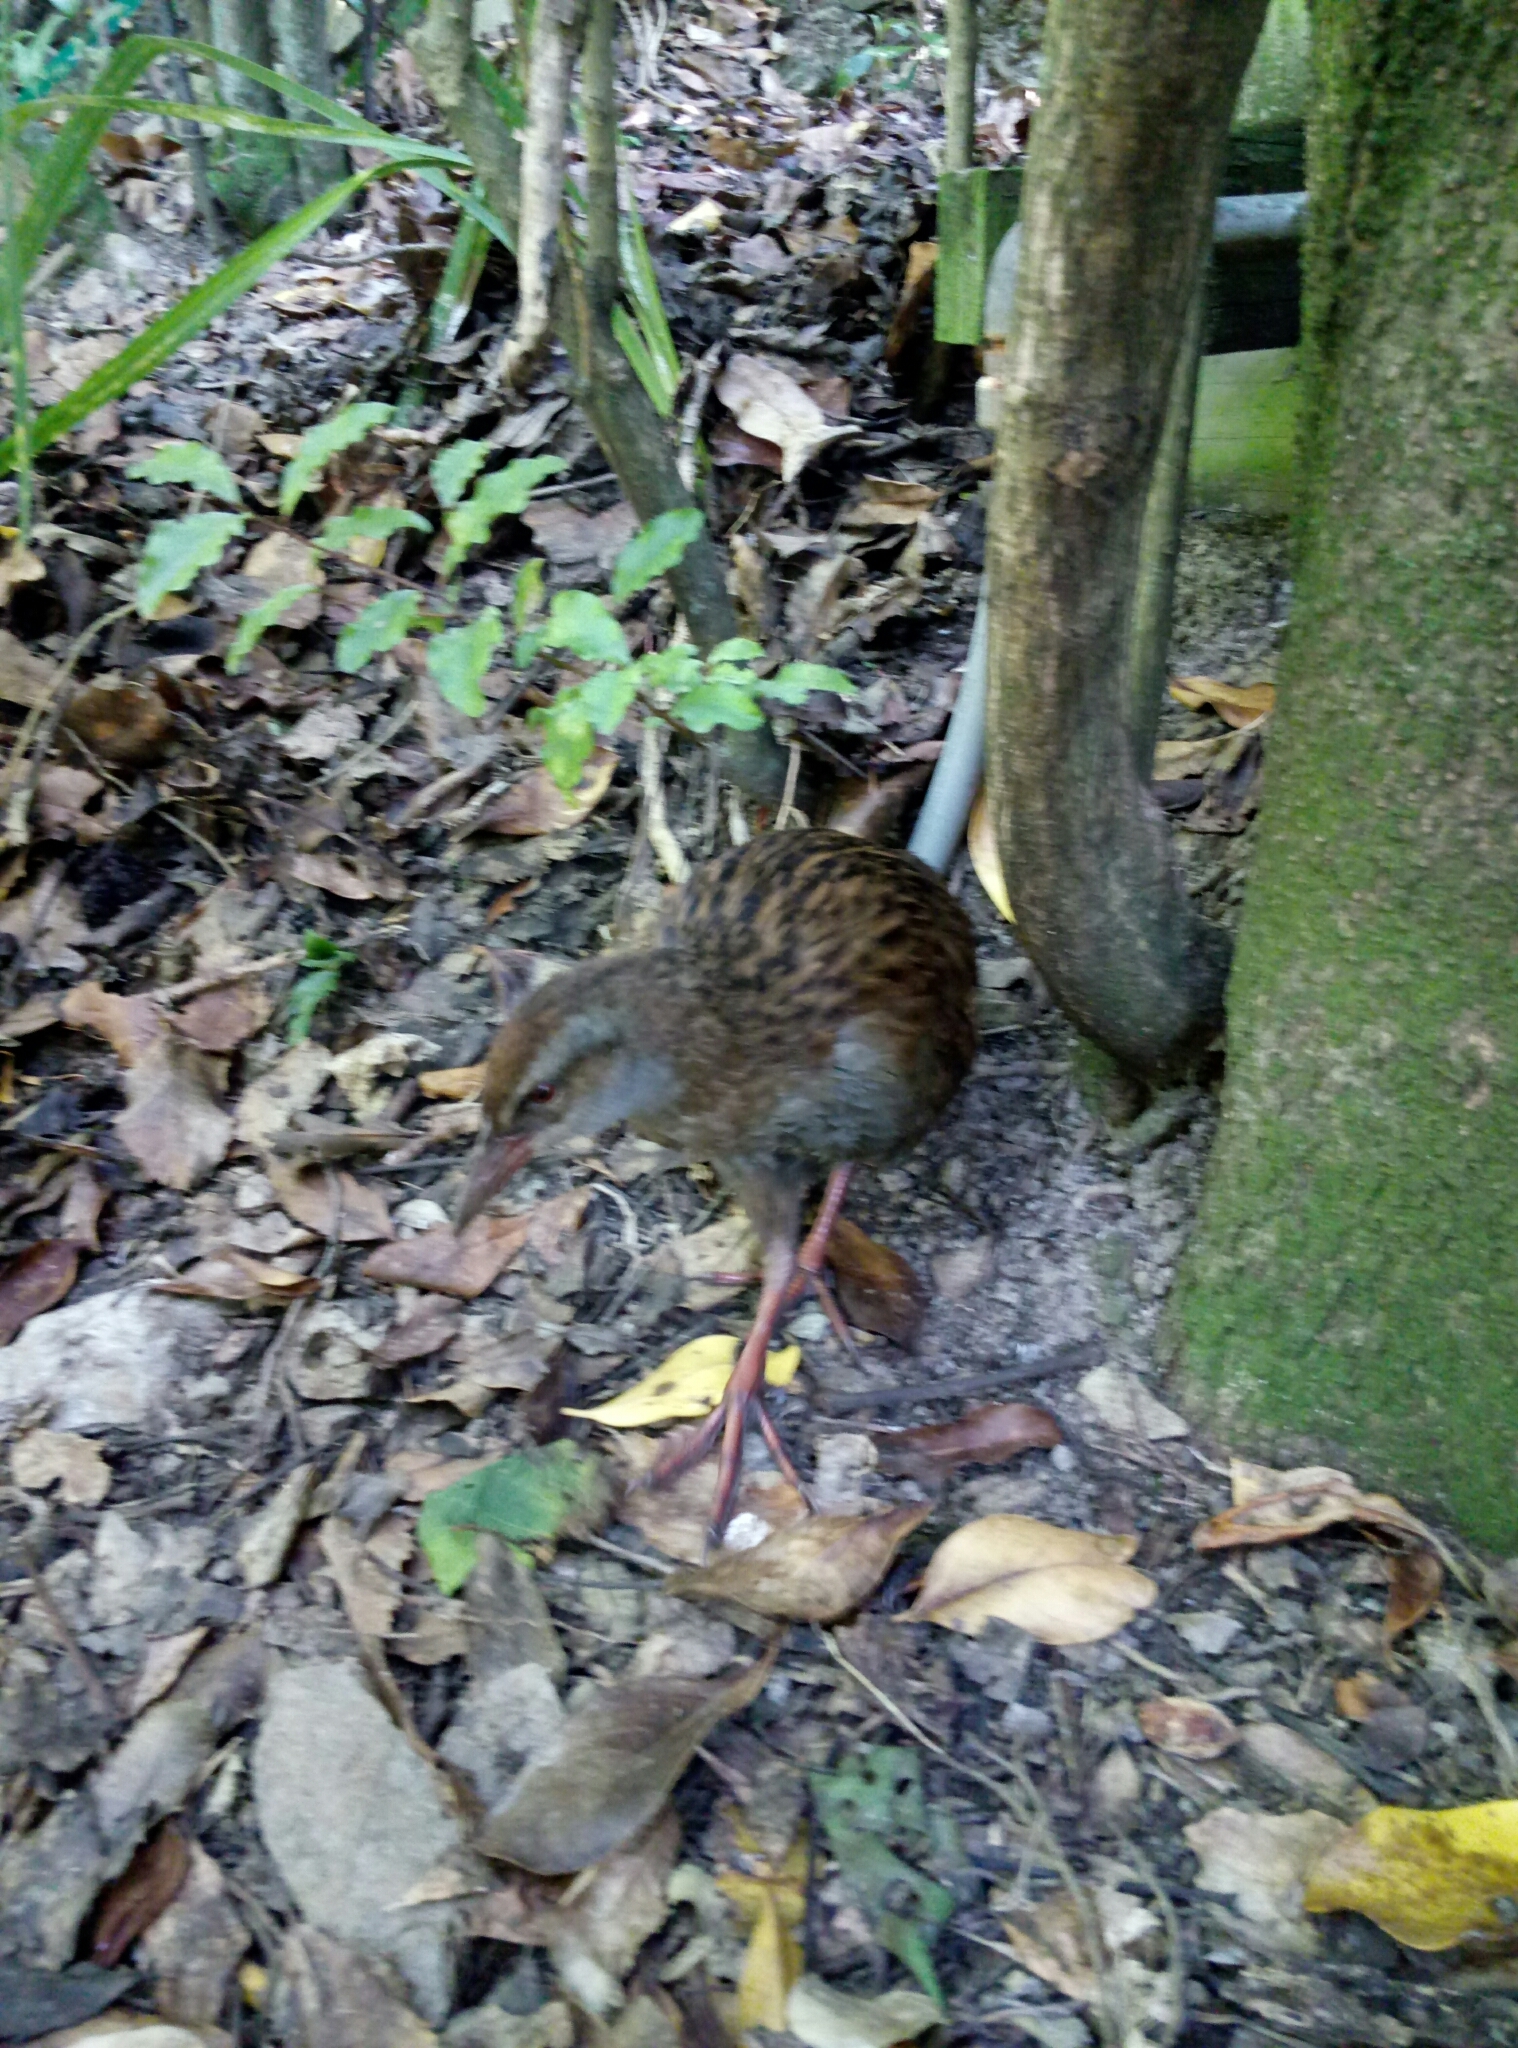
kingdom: Animalia
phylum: Chordata
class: Aves
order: Gruiformes
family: Rallidae
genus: Gallirallus
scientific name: Gallirallus australis
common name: Weka
